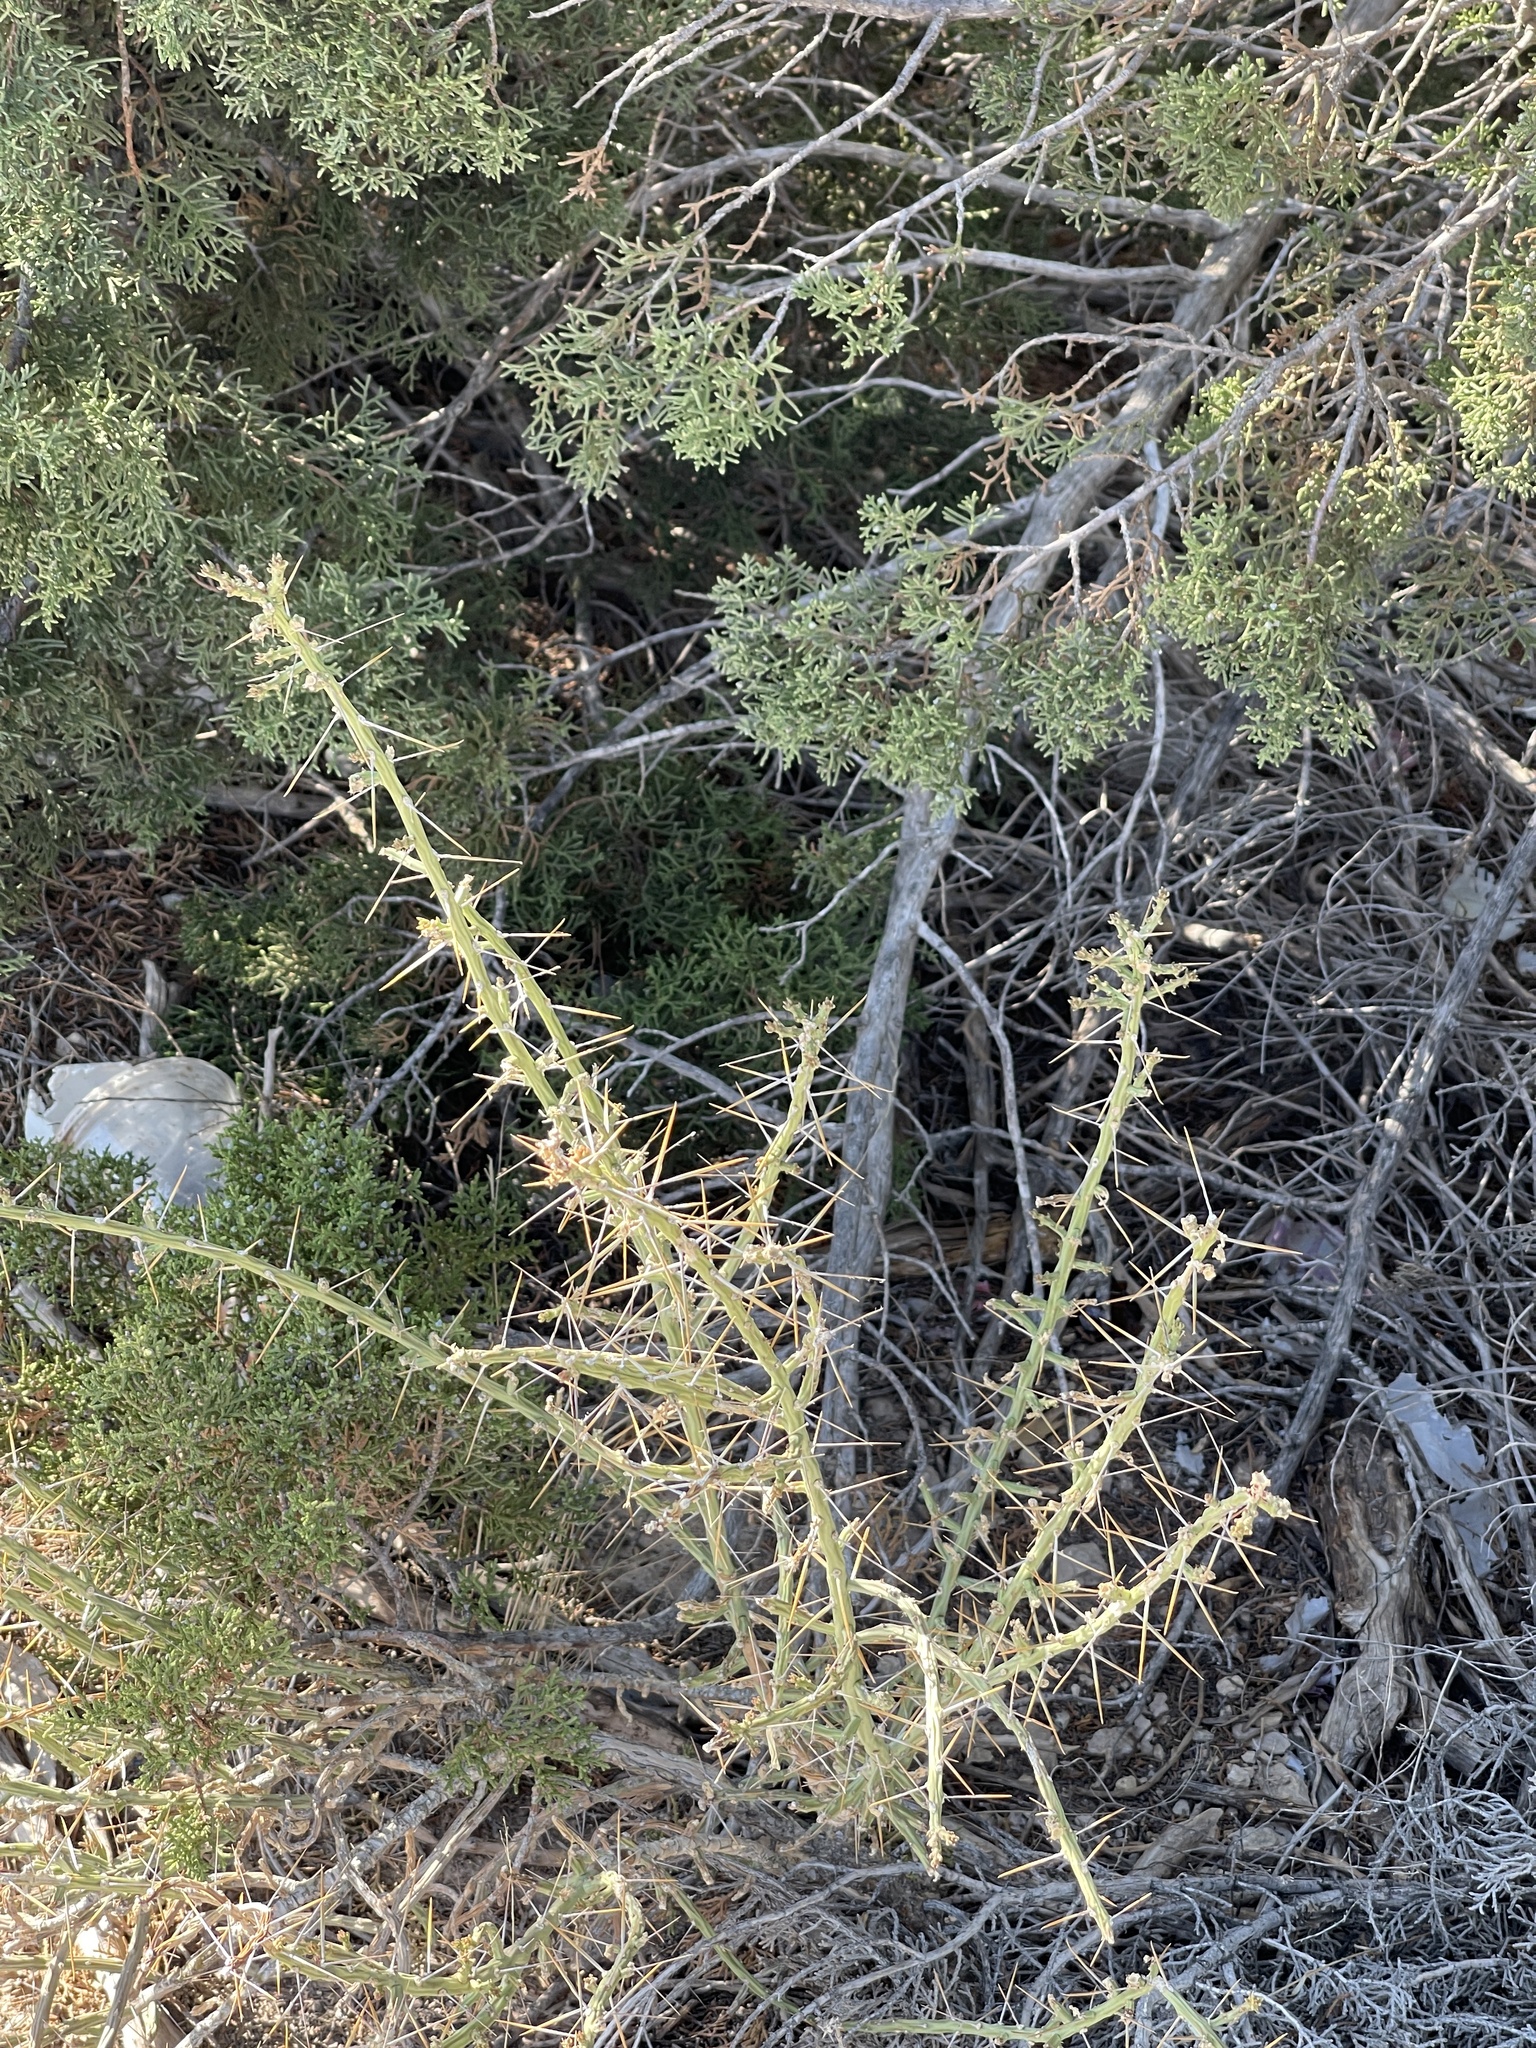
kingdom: Plantae
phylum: Tracheophyta
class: Magnoliopsida
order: Caryophyllales
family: Cactaceae
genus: Cylindropuntia
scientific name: Cylindropuntia leptocaulis
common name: Christmas cactus
